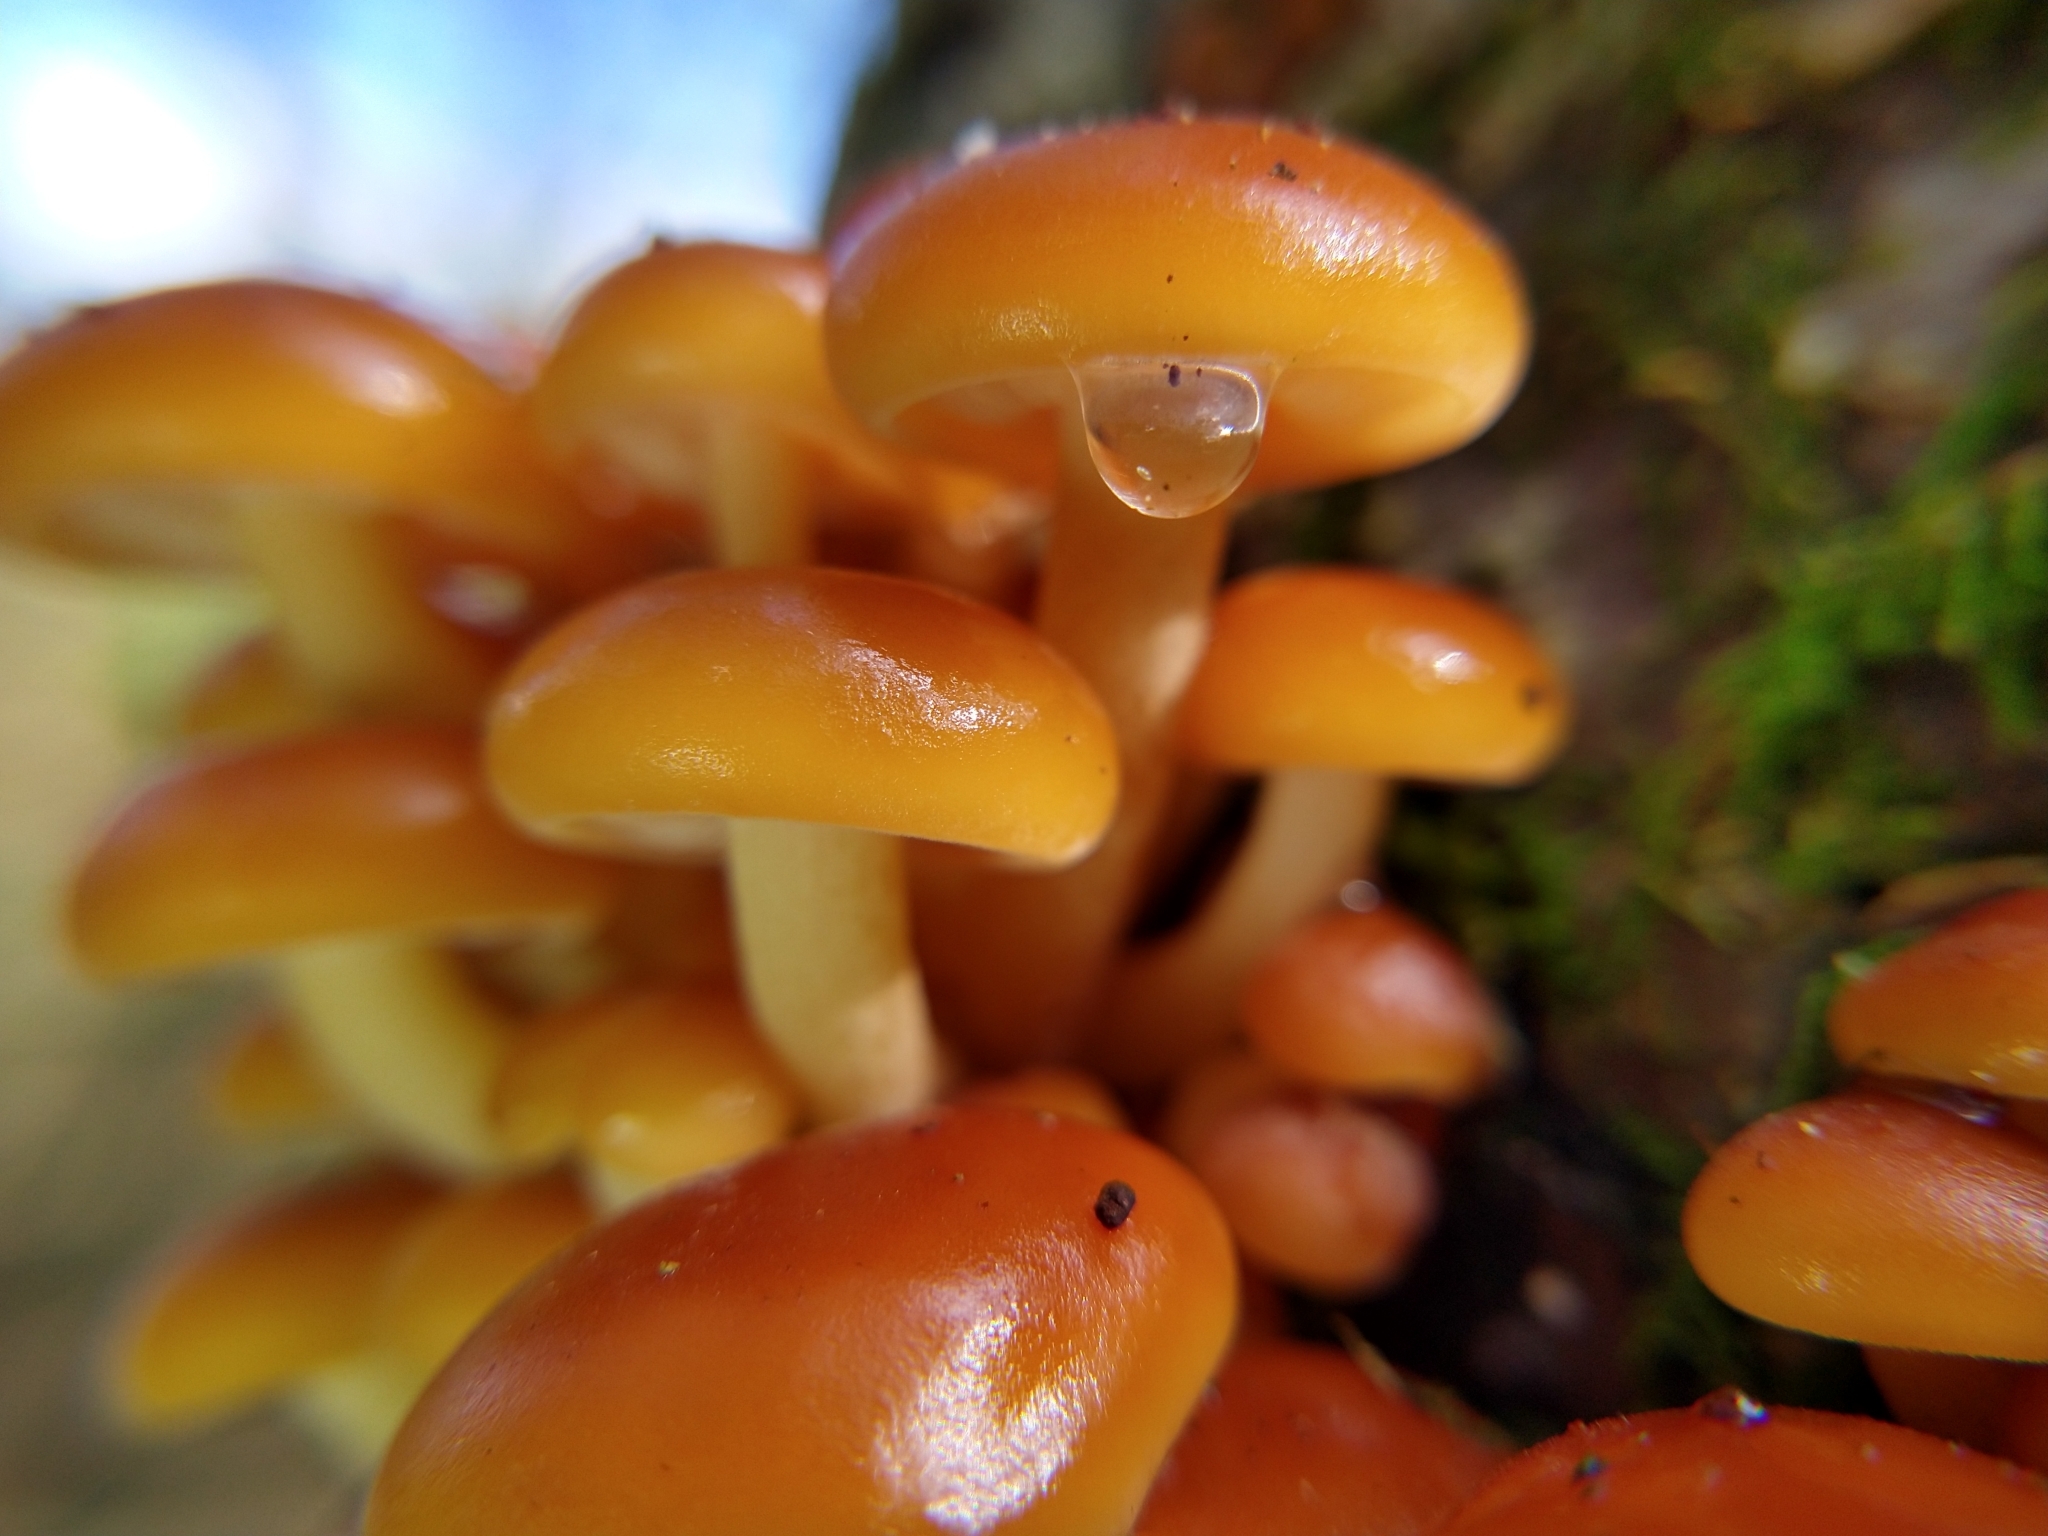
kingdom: Fungi
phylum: Basidiomycota
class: Agaricomycetes
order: Agaricales
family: Physalacriaceae
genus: Flammulina
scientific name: Flammulina velutipes
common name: Velvet shank
